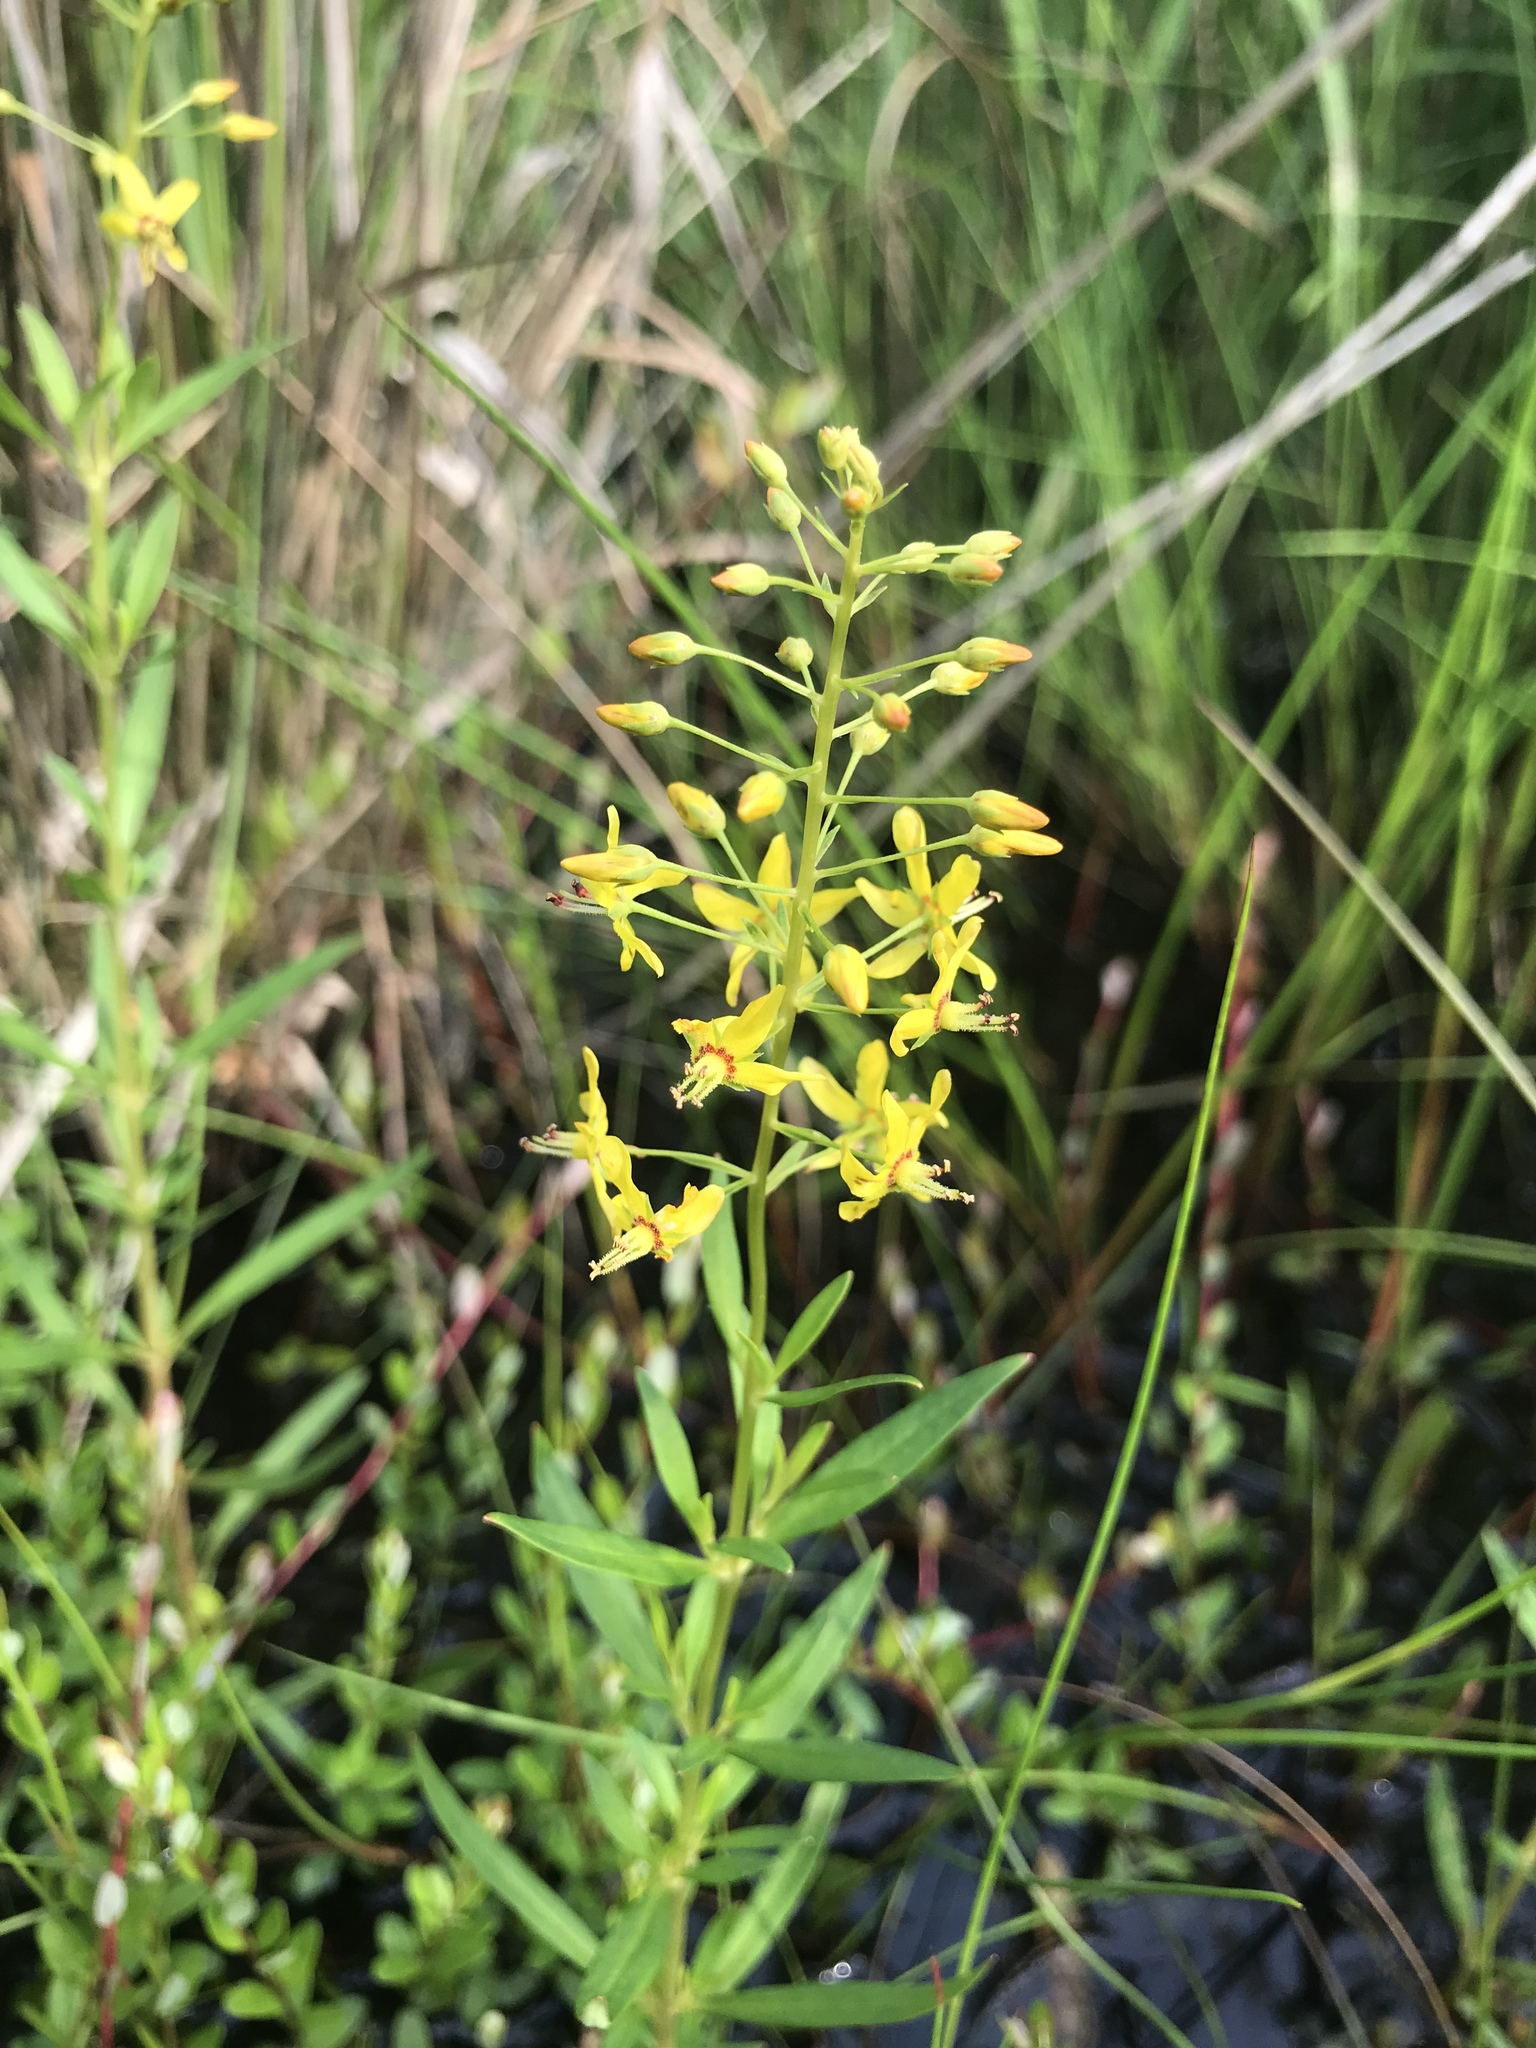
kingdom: Plantae
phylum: Tracheophyta
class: Magnoliopsida
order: Ericales
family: Primulaceae
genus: Lysimachia
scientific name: Lysimachia terrestris
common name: Lake loosestrife
